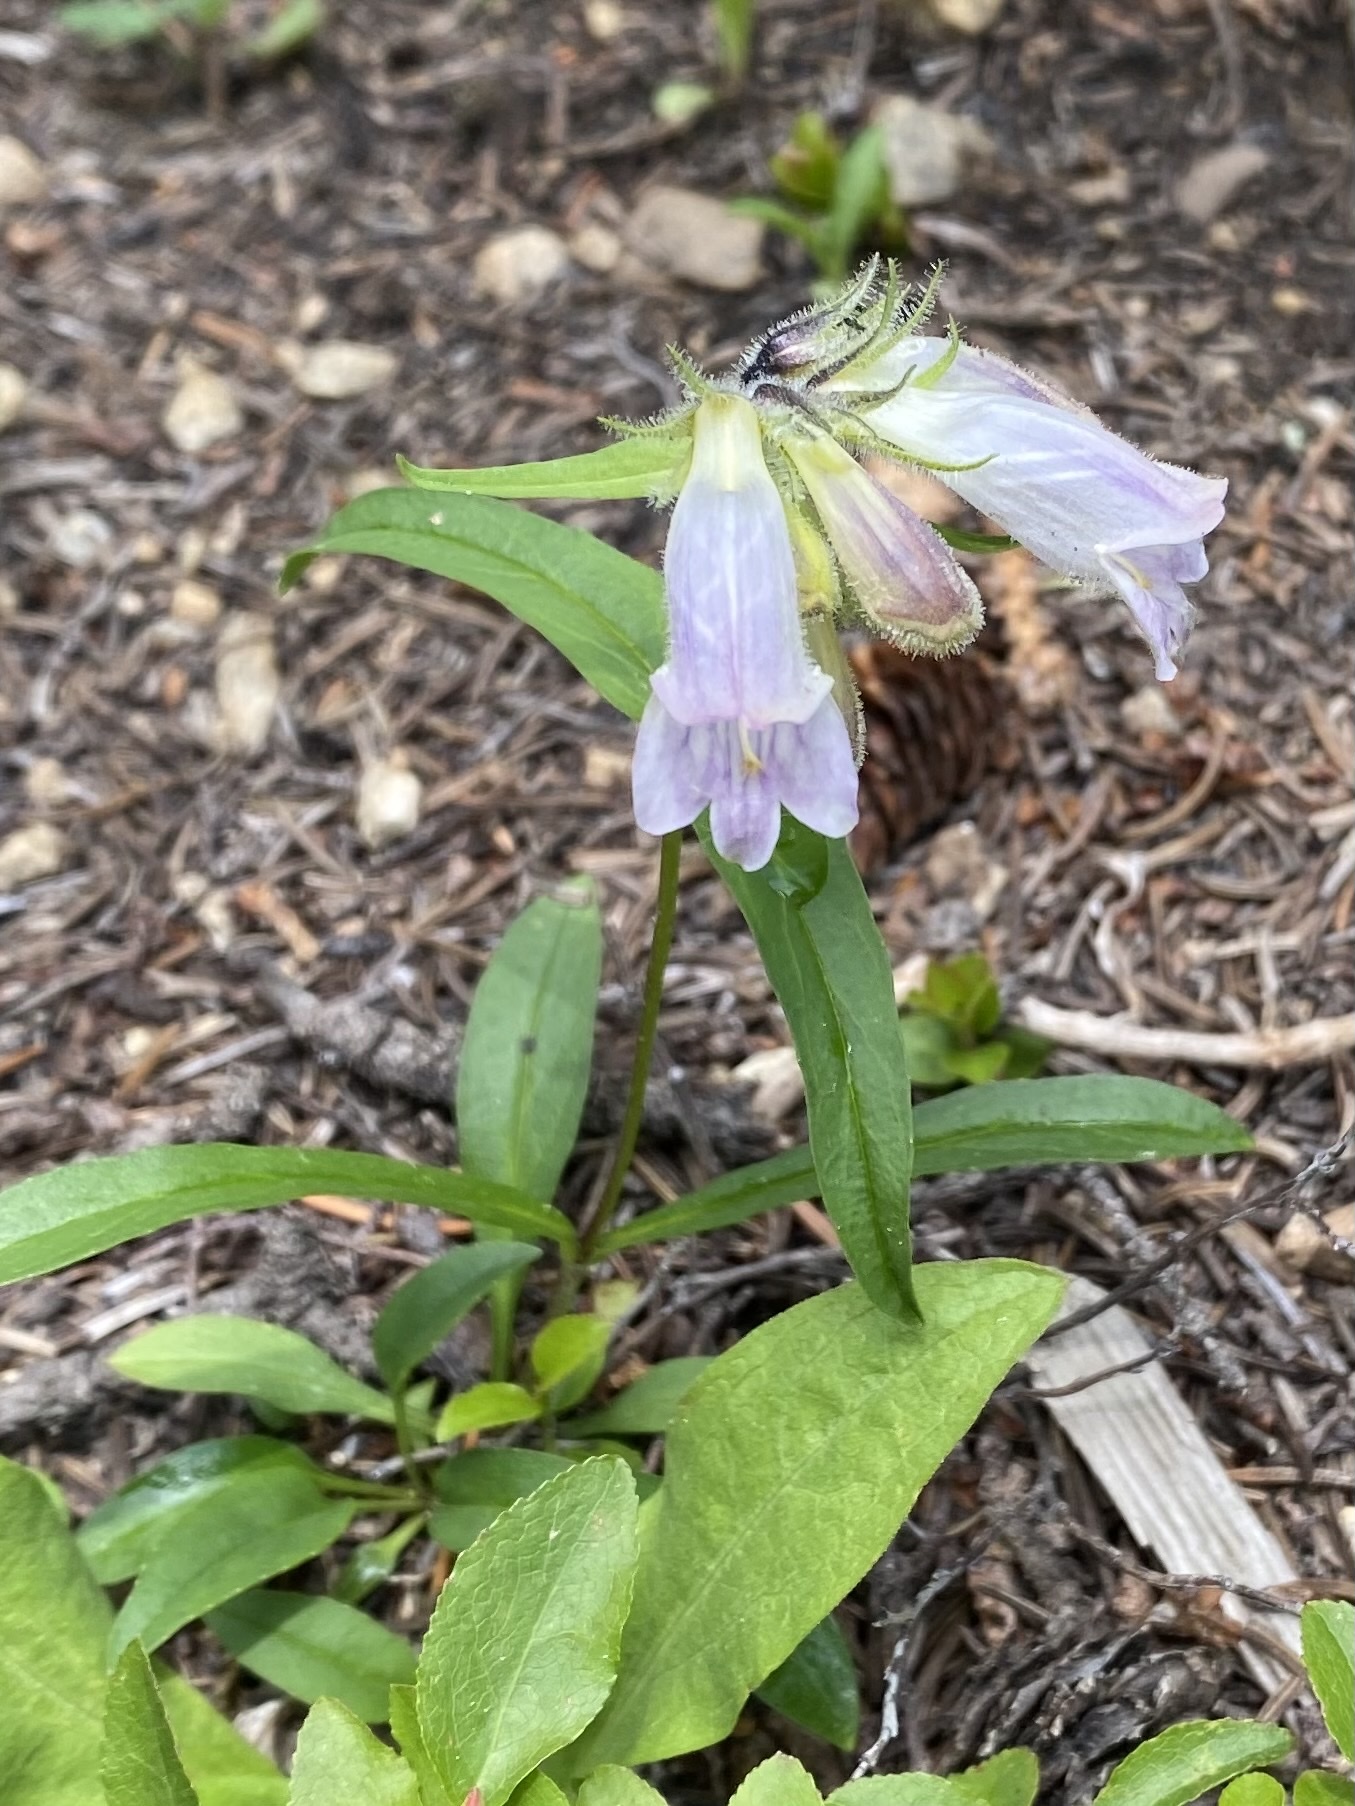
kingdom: Plantae
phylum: Tracheophyta
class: Magnoliopsida
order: Lamiales
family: Plantaginaceae
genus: Penstemon
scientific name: Penstemon whippleanus
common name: Whipple's penstemon
